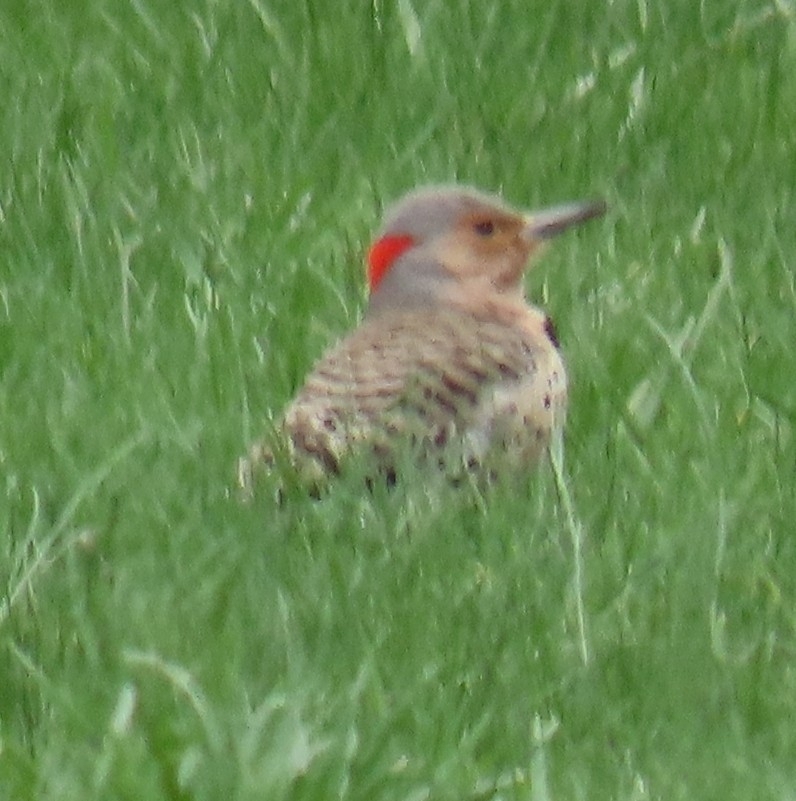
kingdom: Animalia
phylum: Chordata
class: Aves
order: Piciformes
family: Picidae
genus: Colaptes
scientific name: Colaptes auratus
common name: Northern flicker
